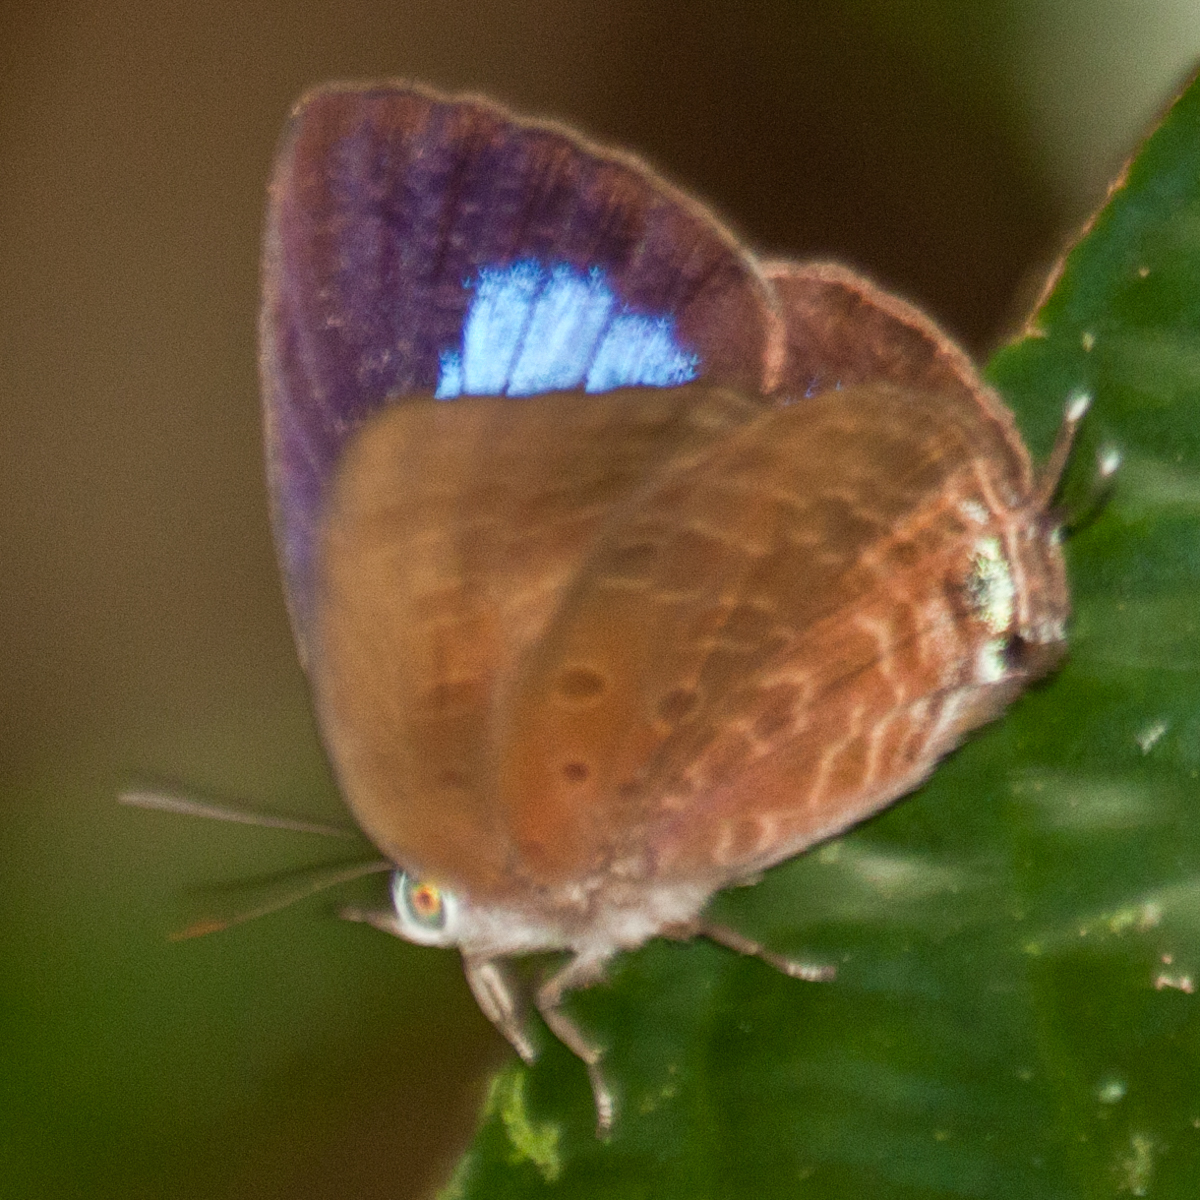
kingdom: Animalia
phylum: Arthropoda
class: Insecta
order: Lepidoptera
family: Lycaenidae
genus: Arhopala
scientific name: Arhopala agrata
